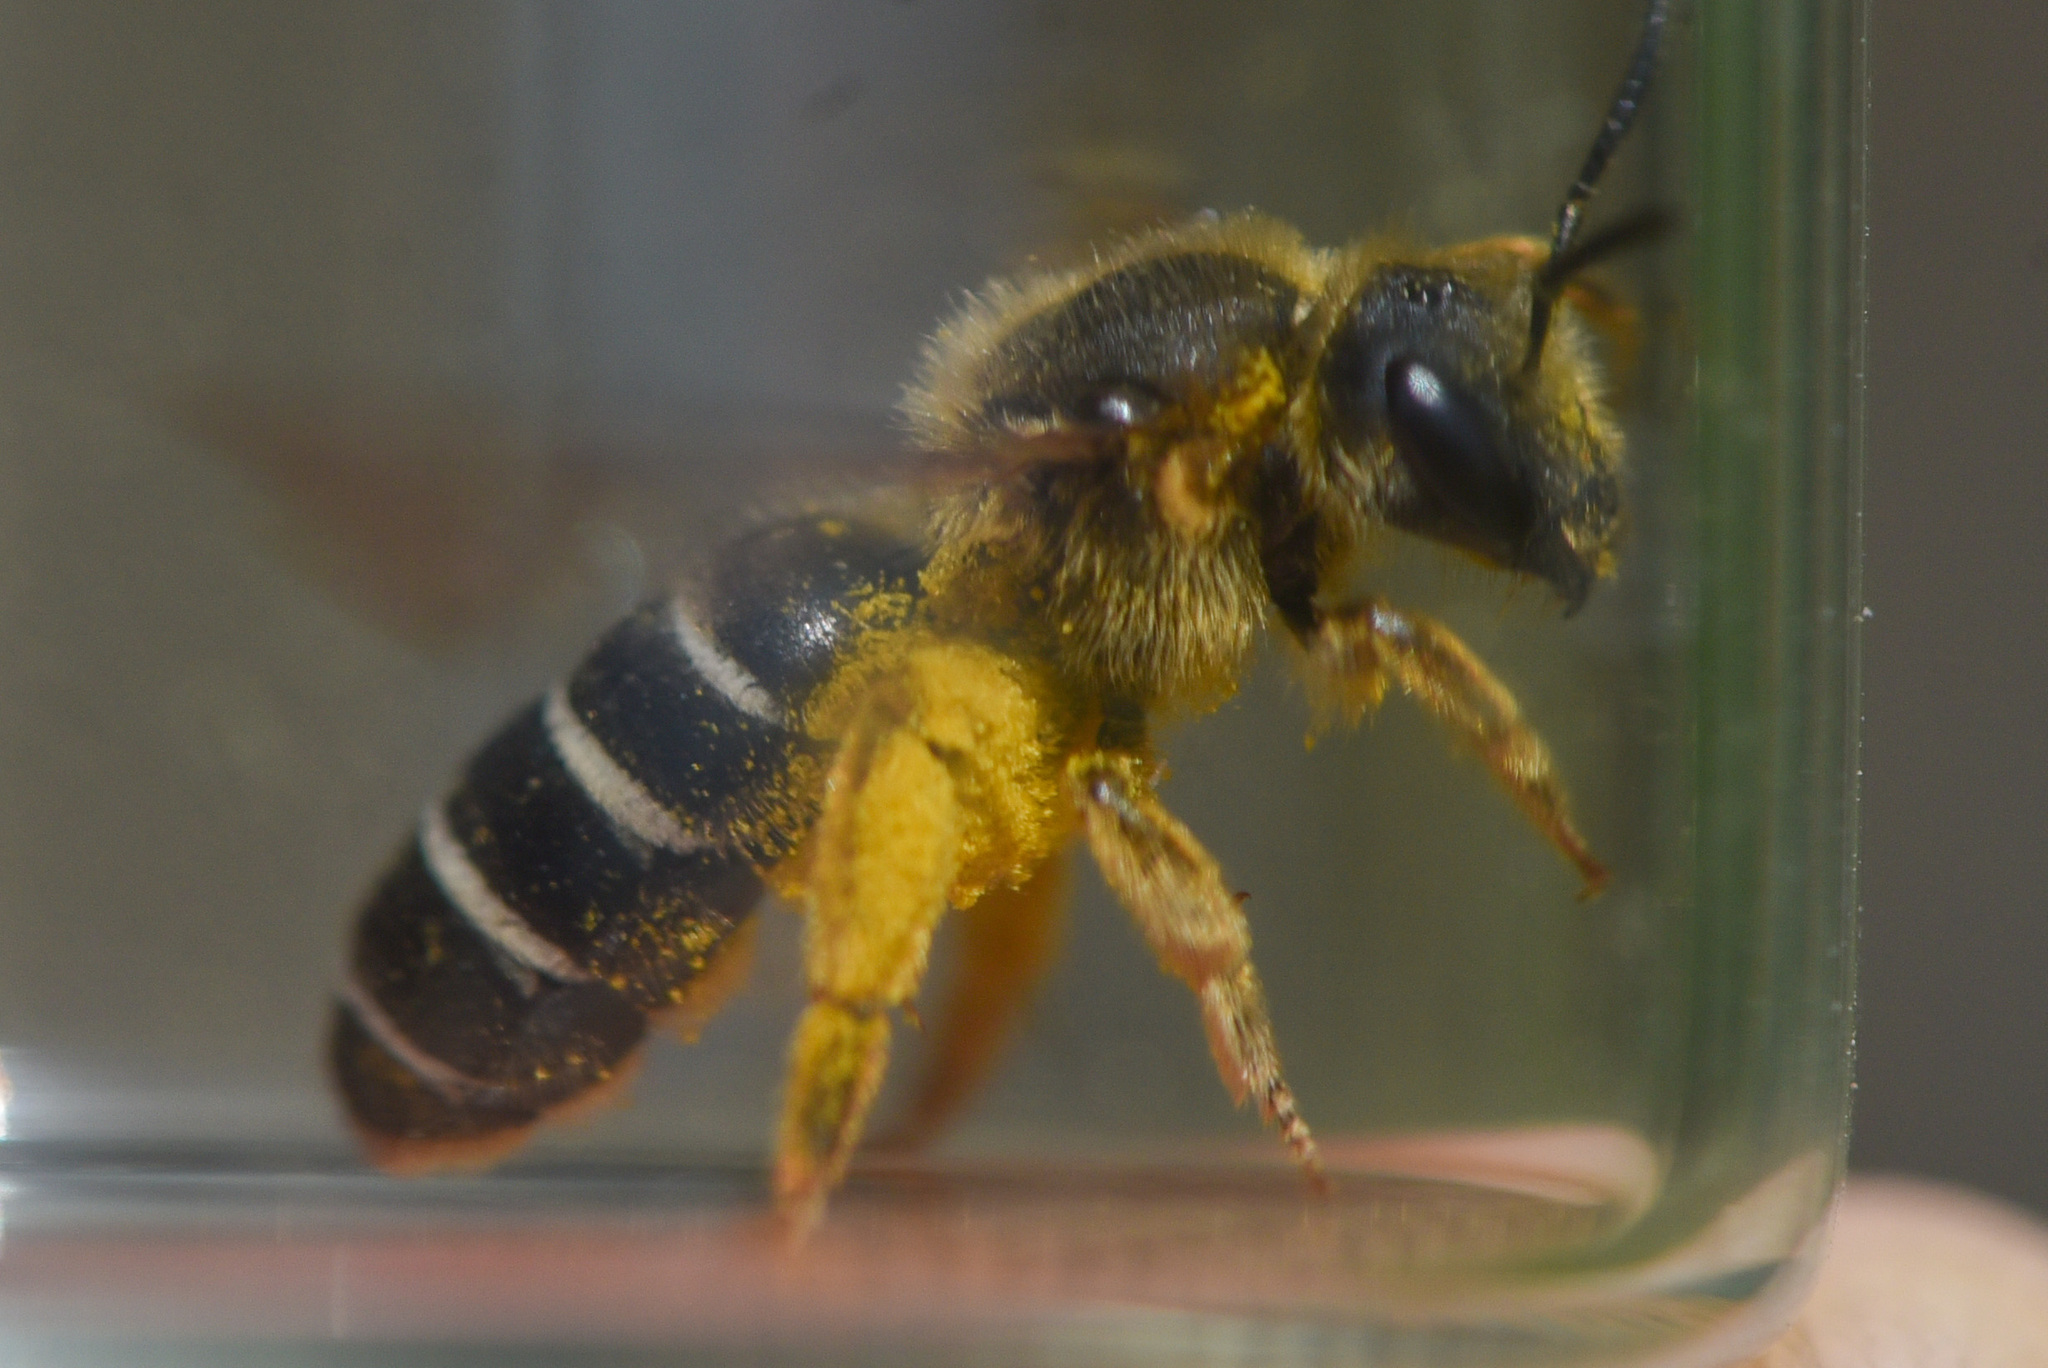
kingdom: Animalia
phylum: Arthropoda
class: Insecta
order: Hymenoptera
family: Halictidae
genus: Halictus
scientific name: Halictus rubicundus
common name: Orange-legged furrow bee
